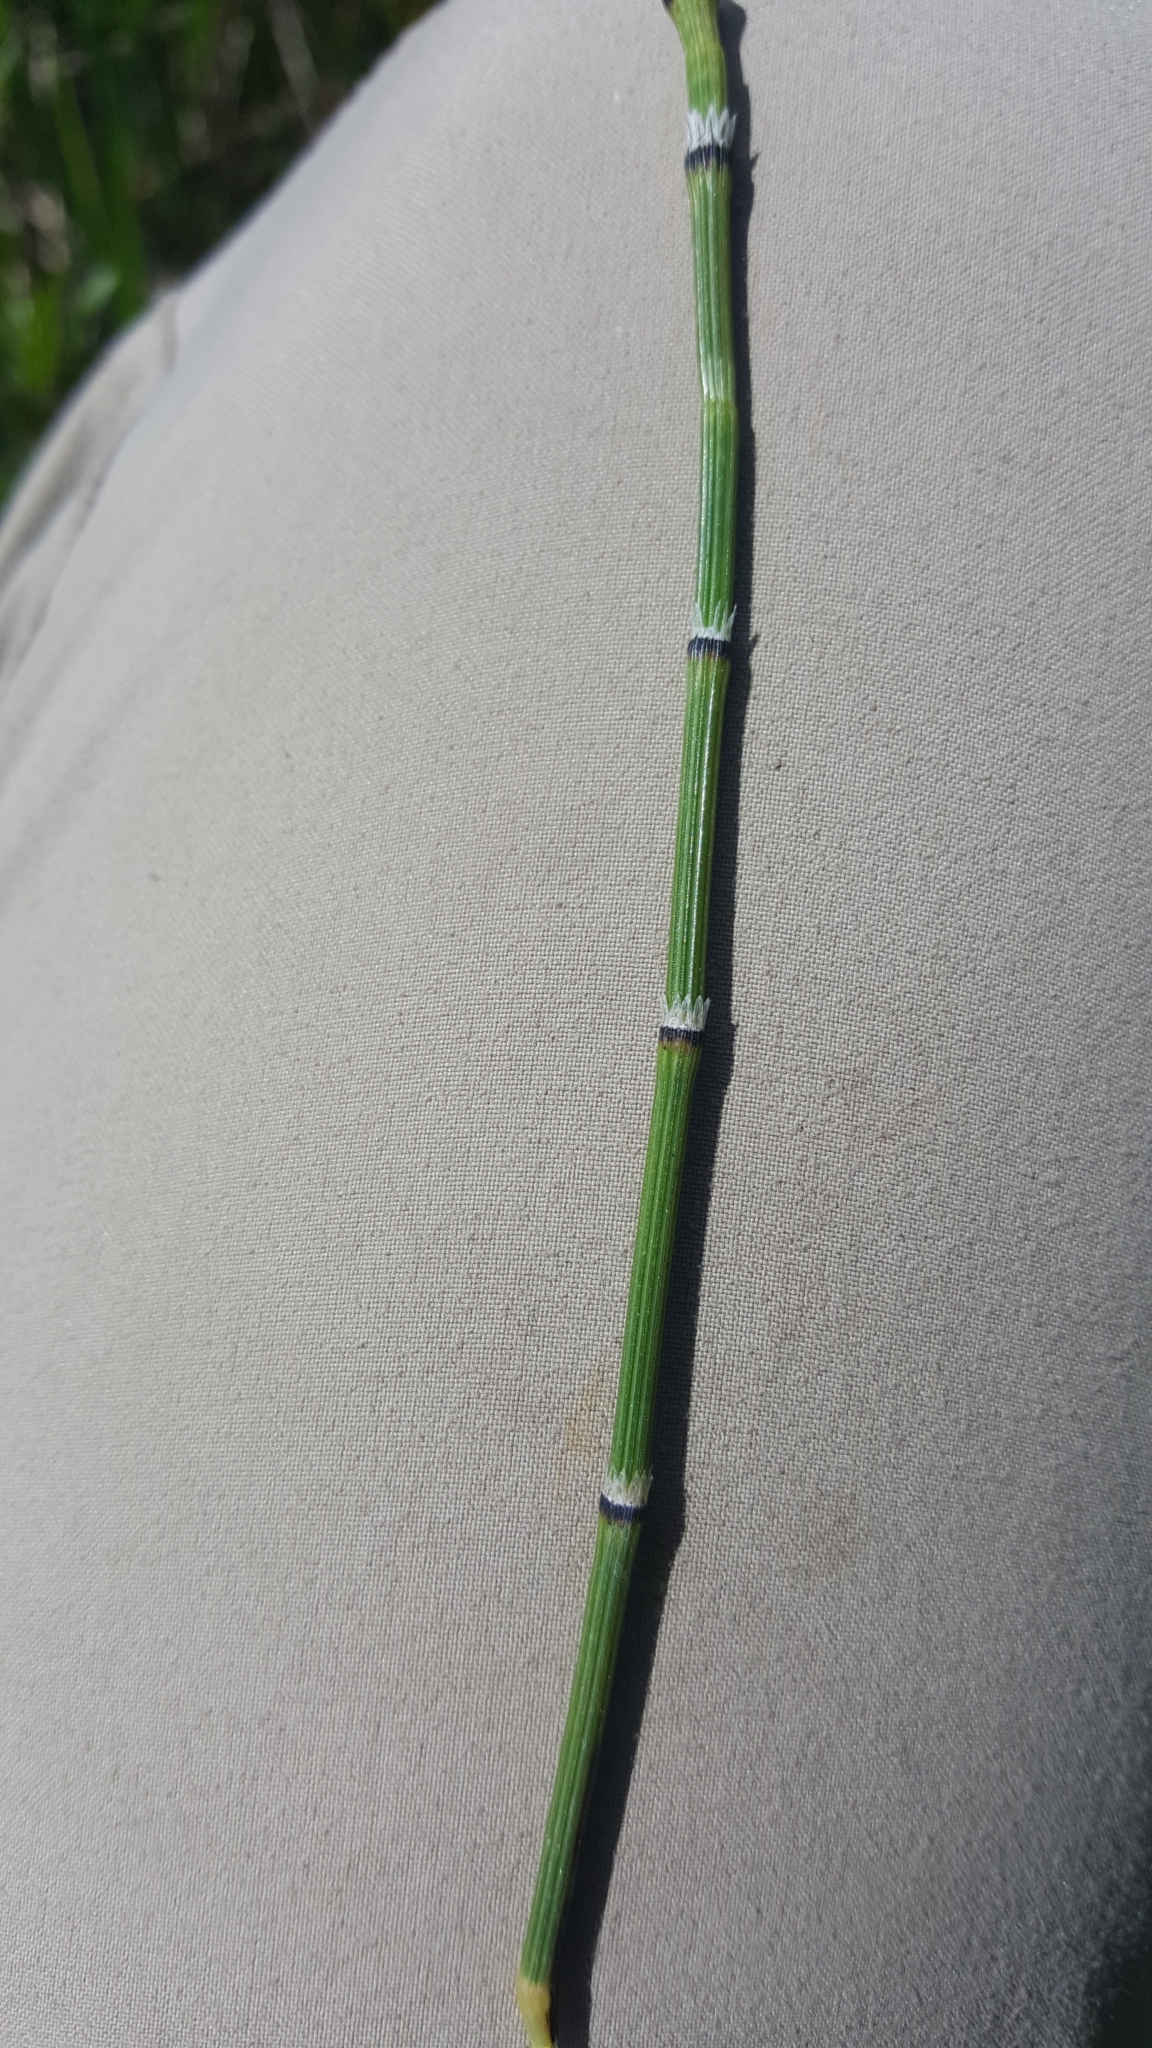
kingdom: Plantae
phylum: Tracheophyta
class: Polypodiopsida
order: Equisetales
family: Equisetaceae
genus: Equisetum
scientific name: Equisetum variegatum
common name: Variegated horsetail
